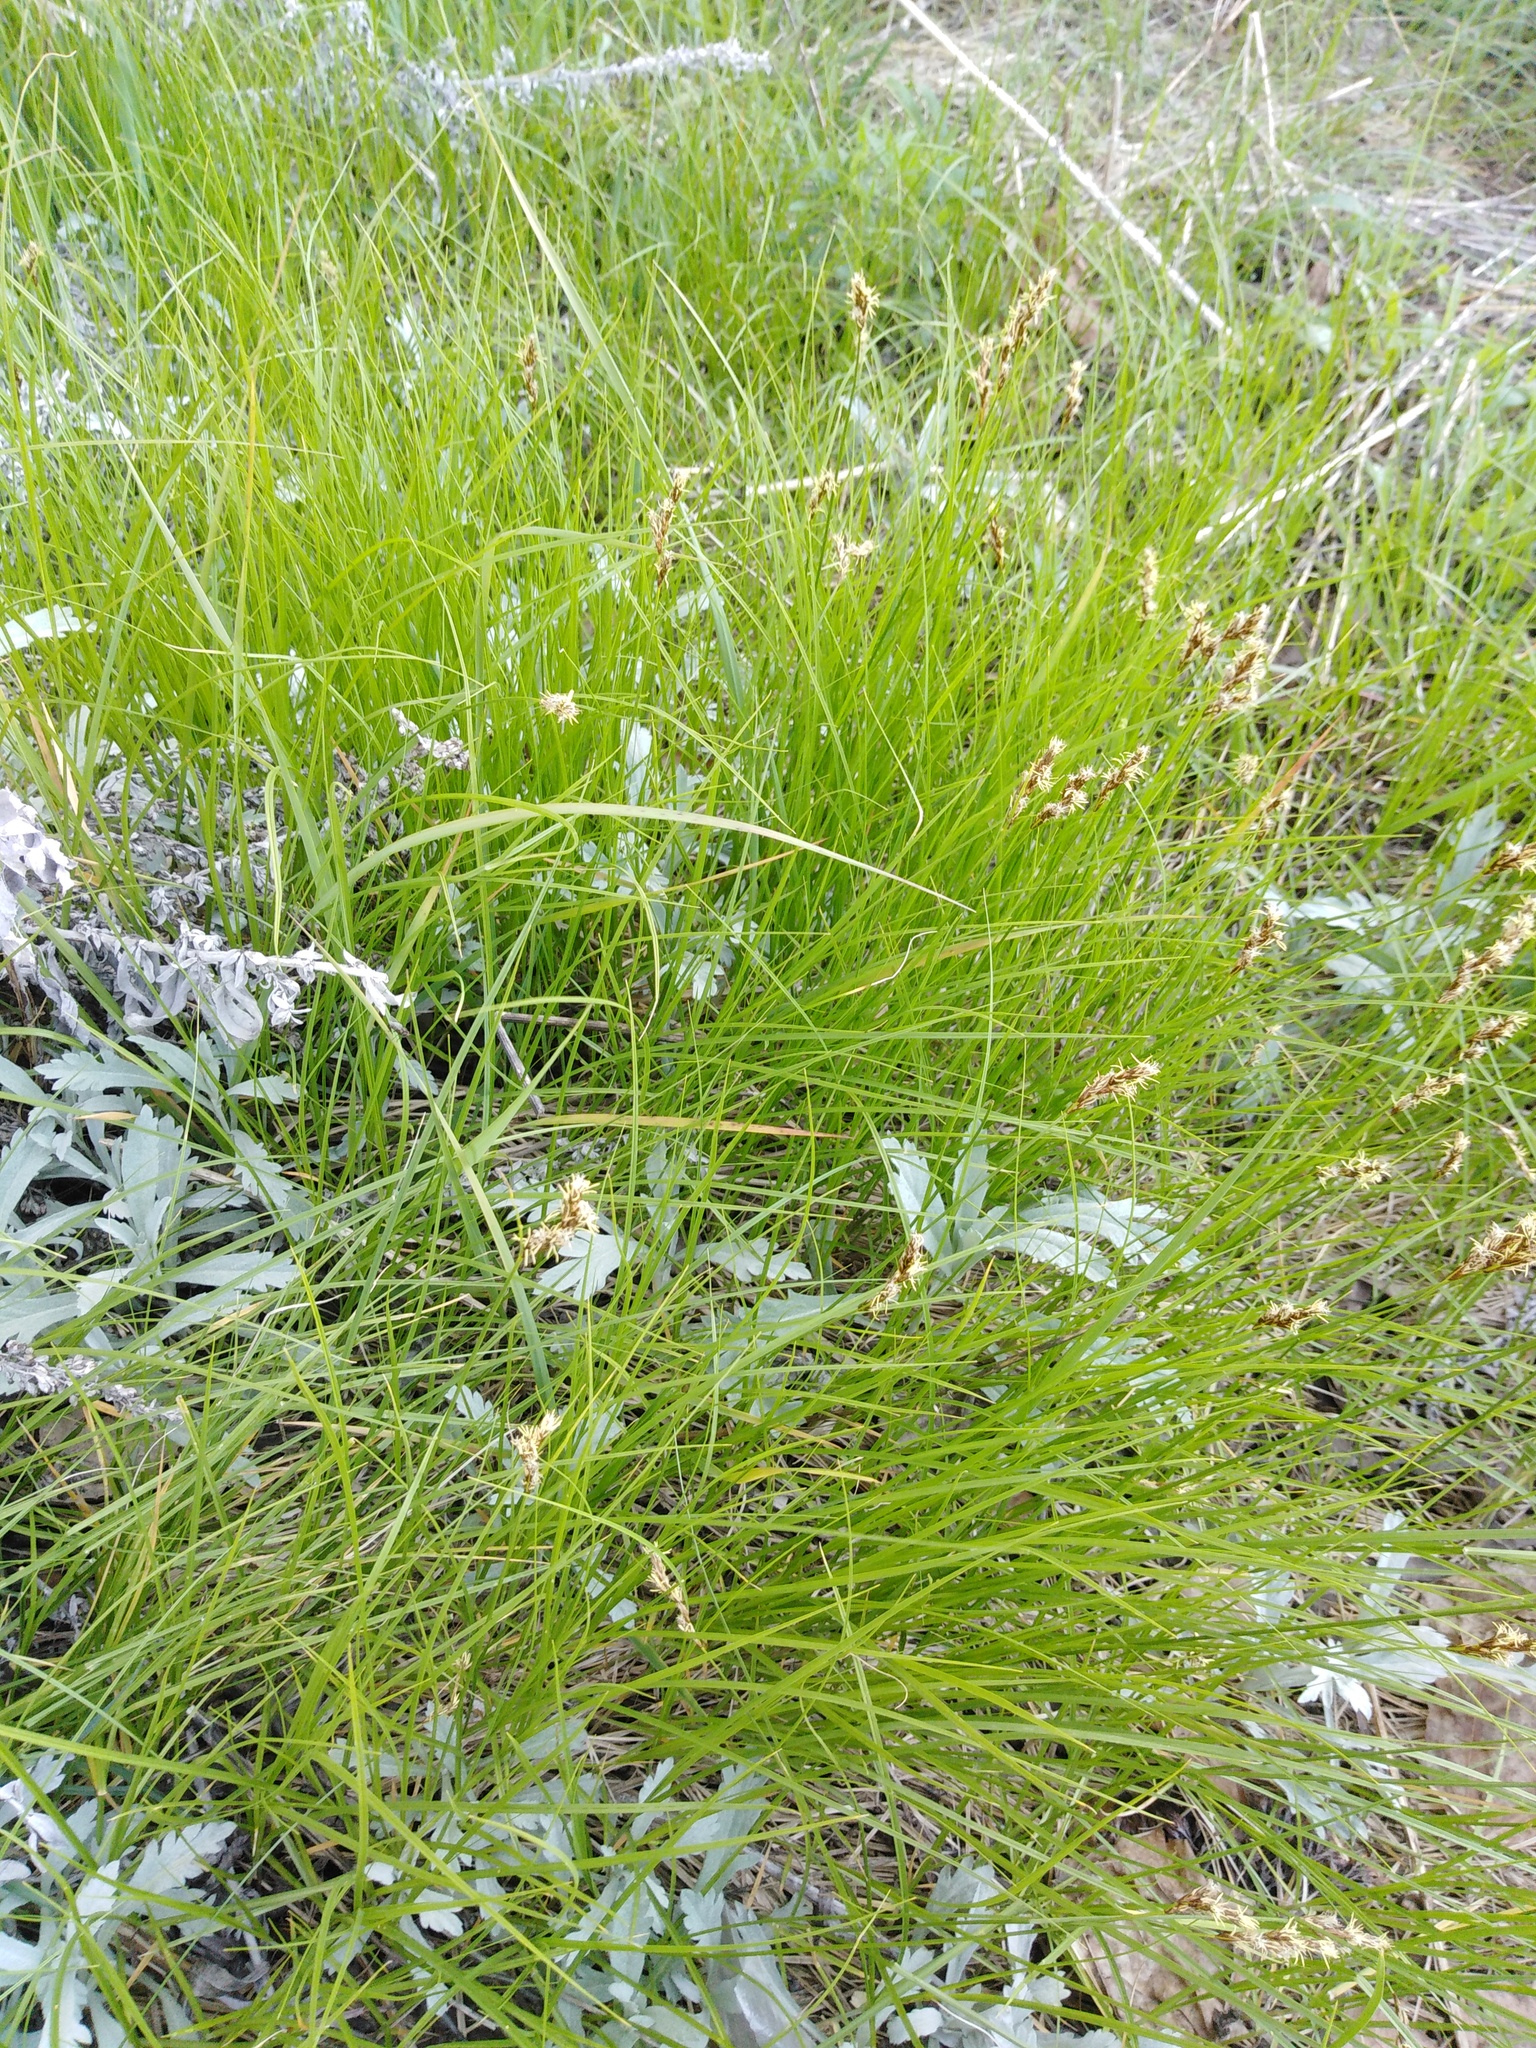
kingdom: Plantae
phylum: Tracheophyta
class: Liliopsida
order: Poales
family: Cyperaceae
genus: Carex
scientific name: Carex praecox
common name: Early sedge
